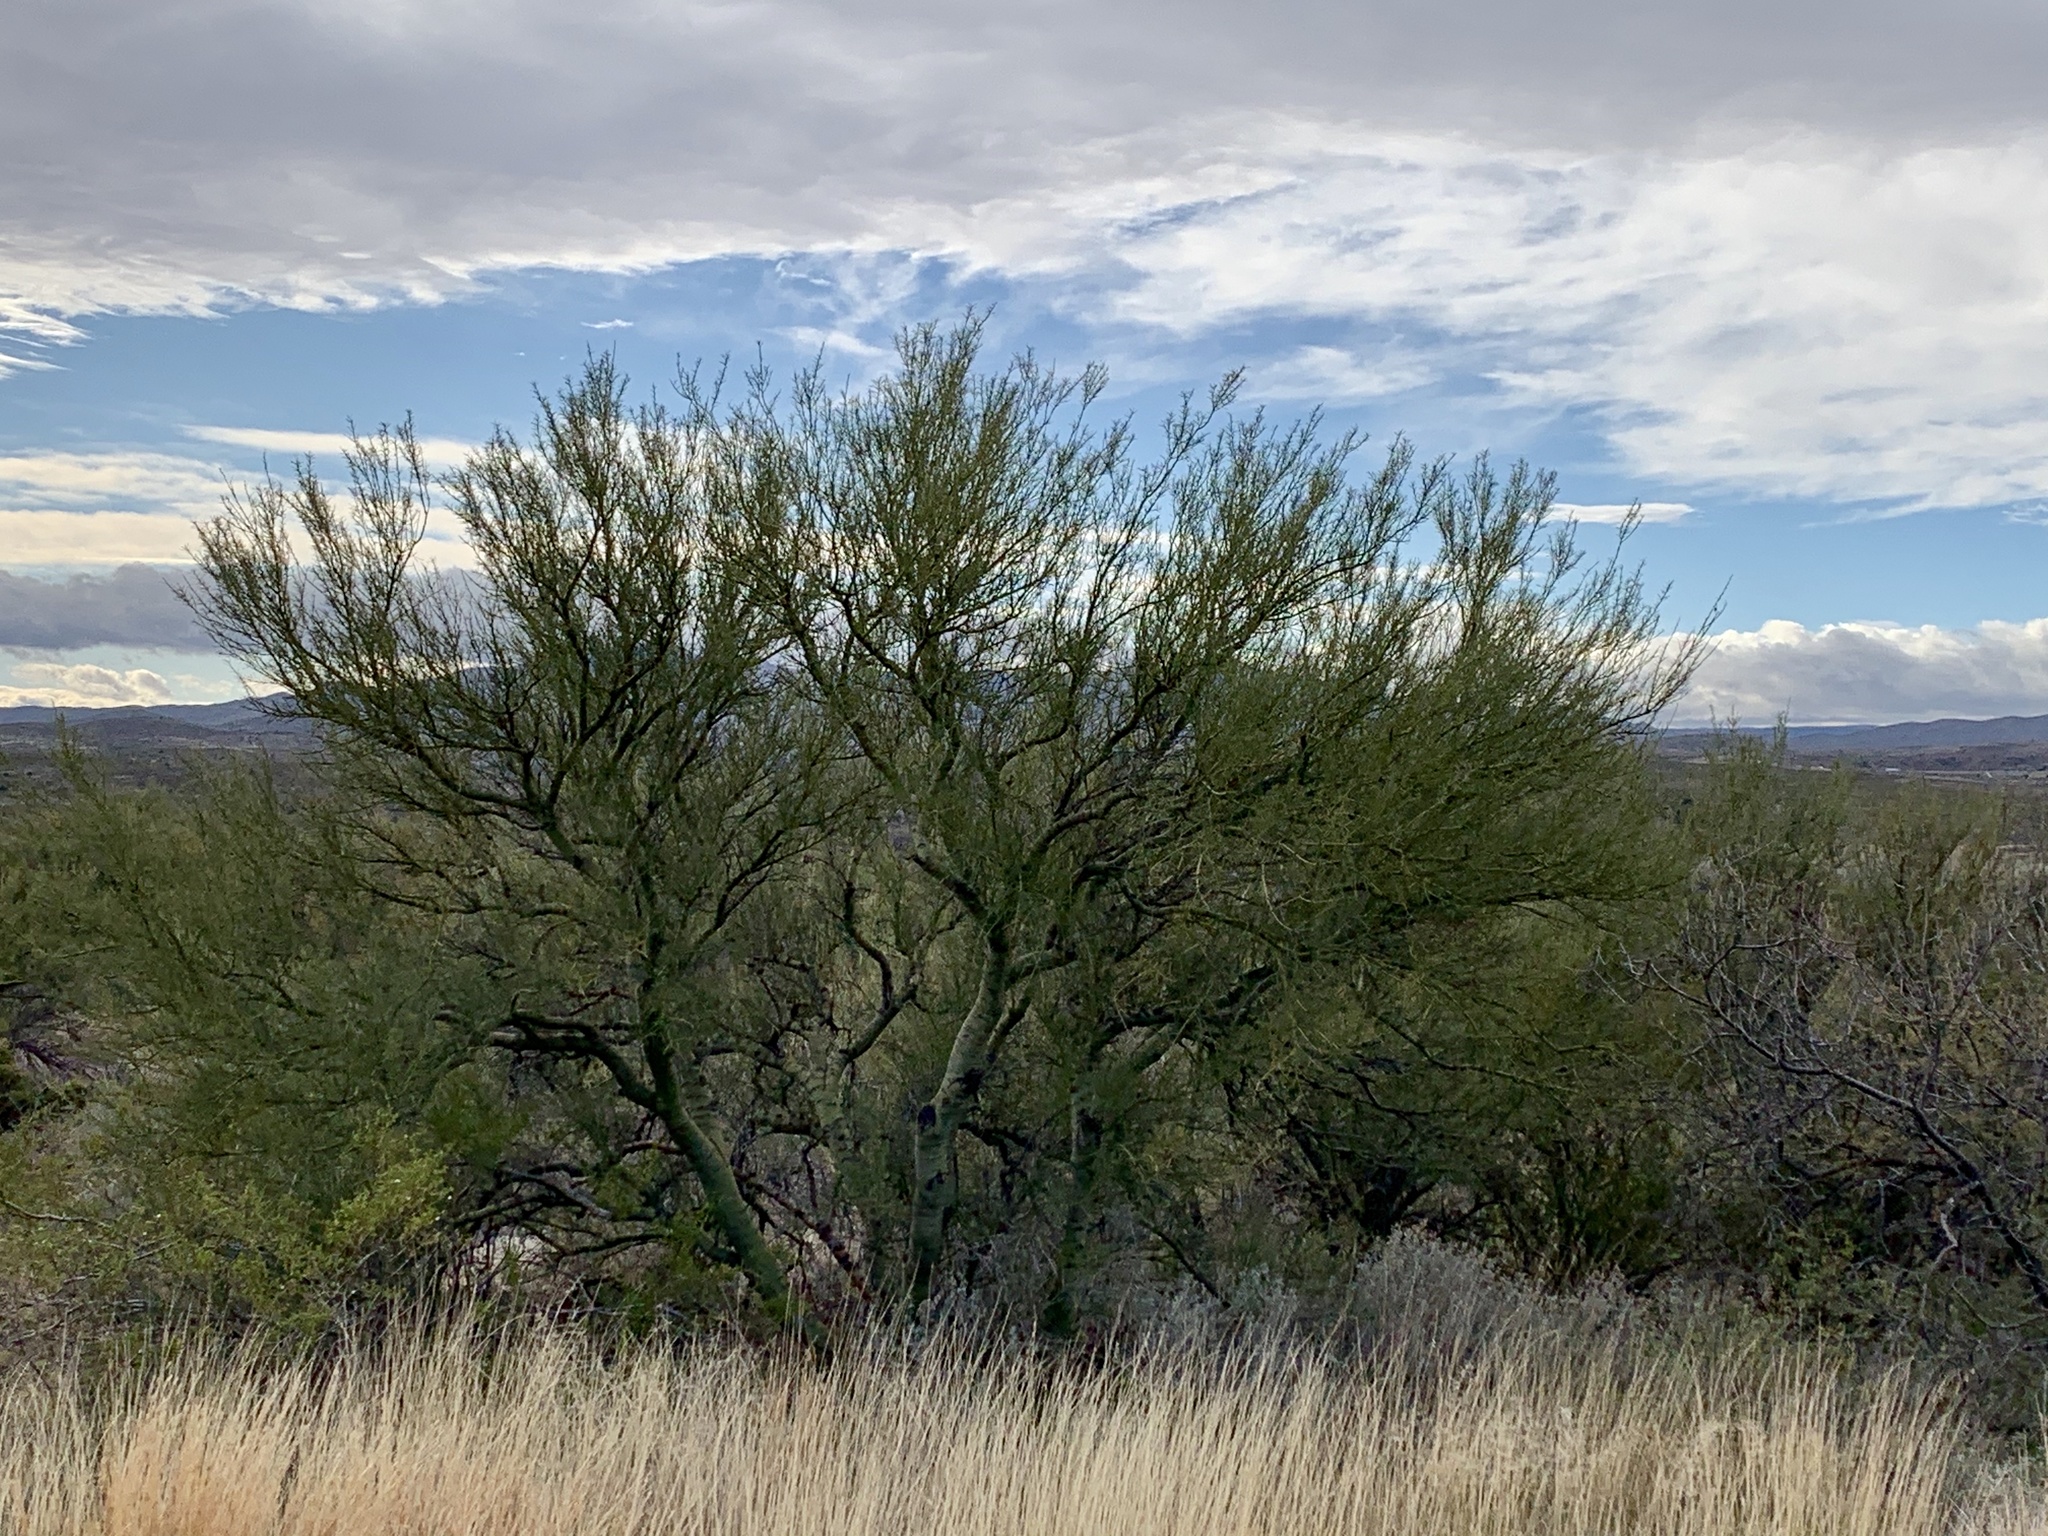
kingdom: Plantae
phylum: Tracheophyta
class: Magnoliopsida
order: Fabales
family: Fabaceae
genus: Parkinsonia
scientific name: Parkinsonia microphylla
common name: Yellow paloverde
